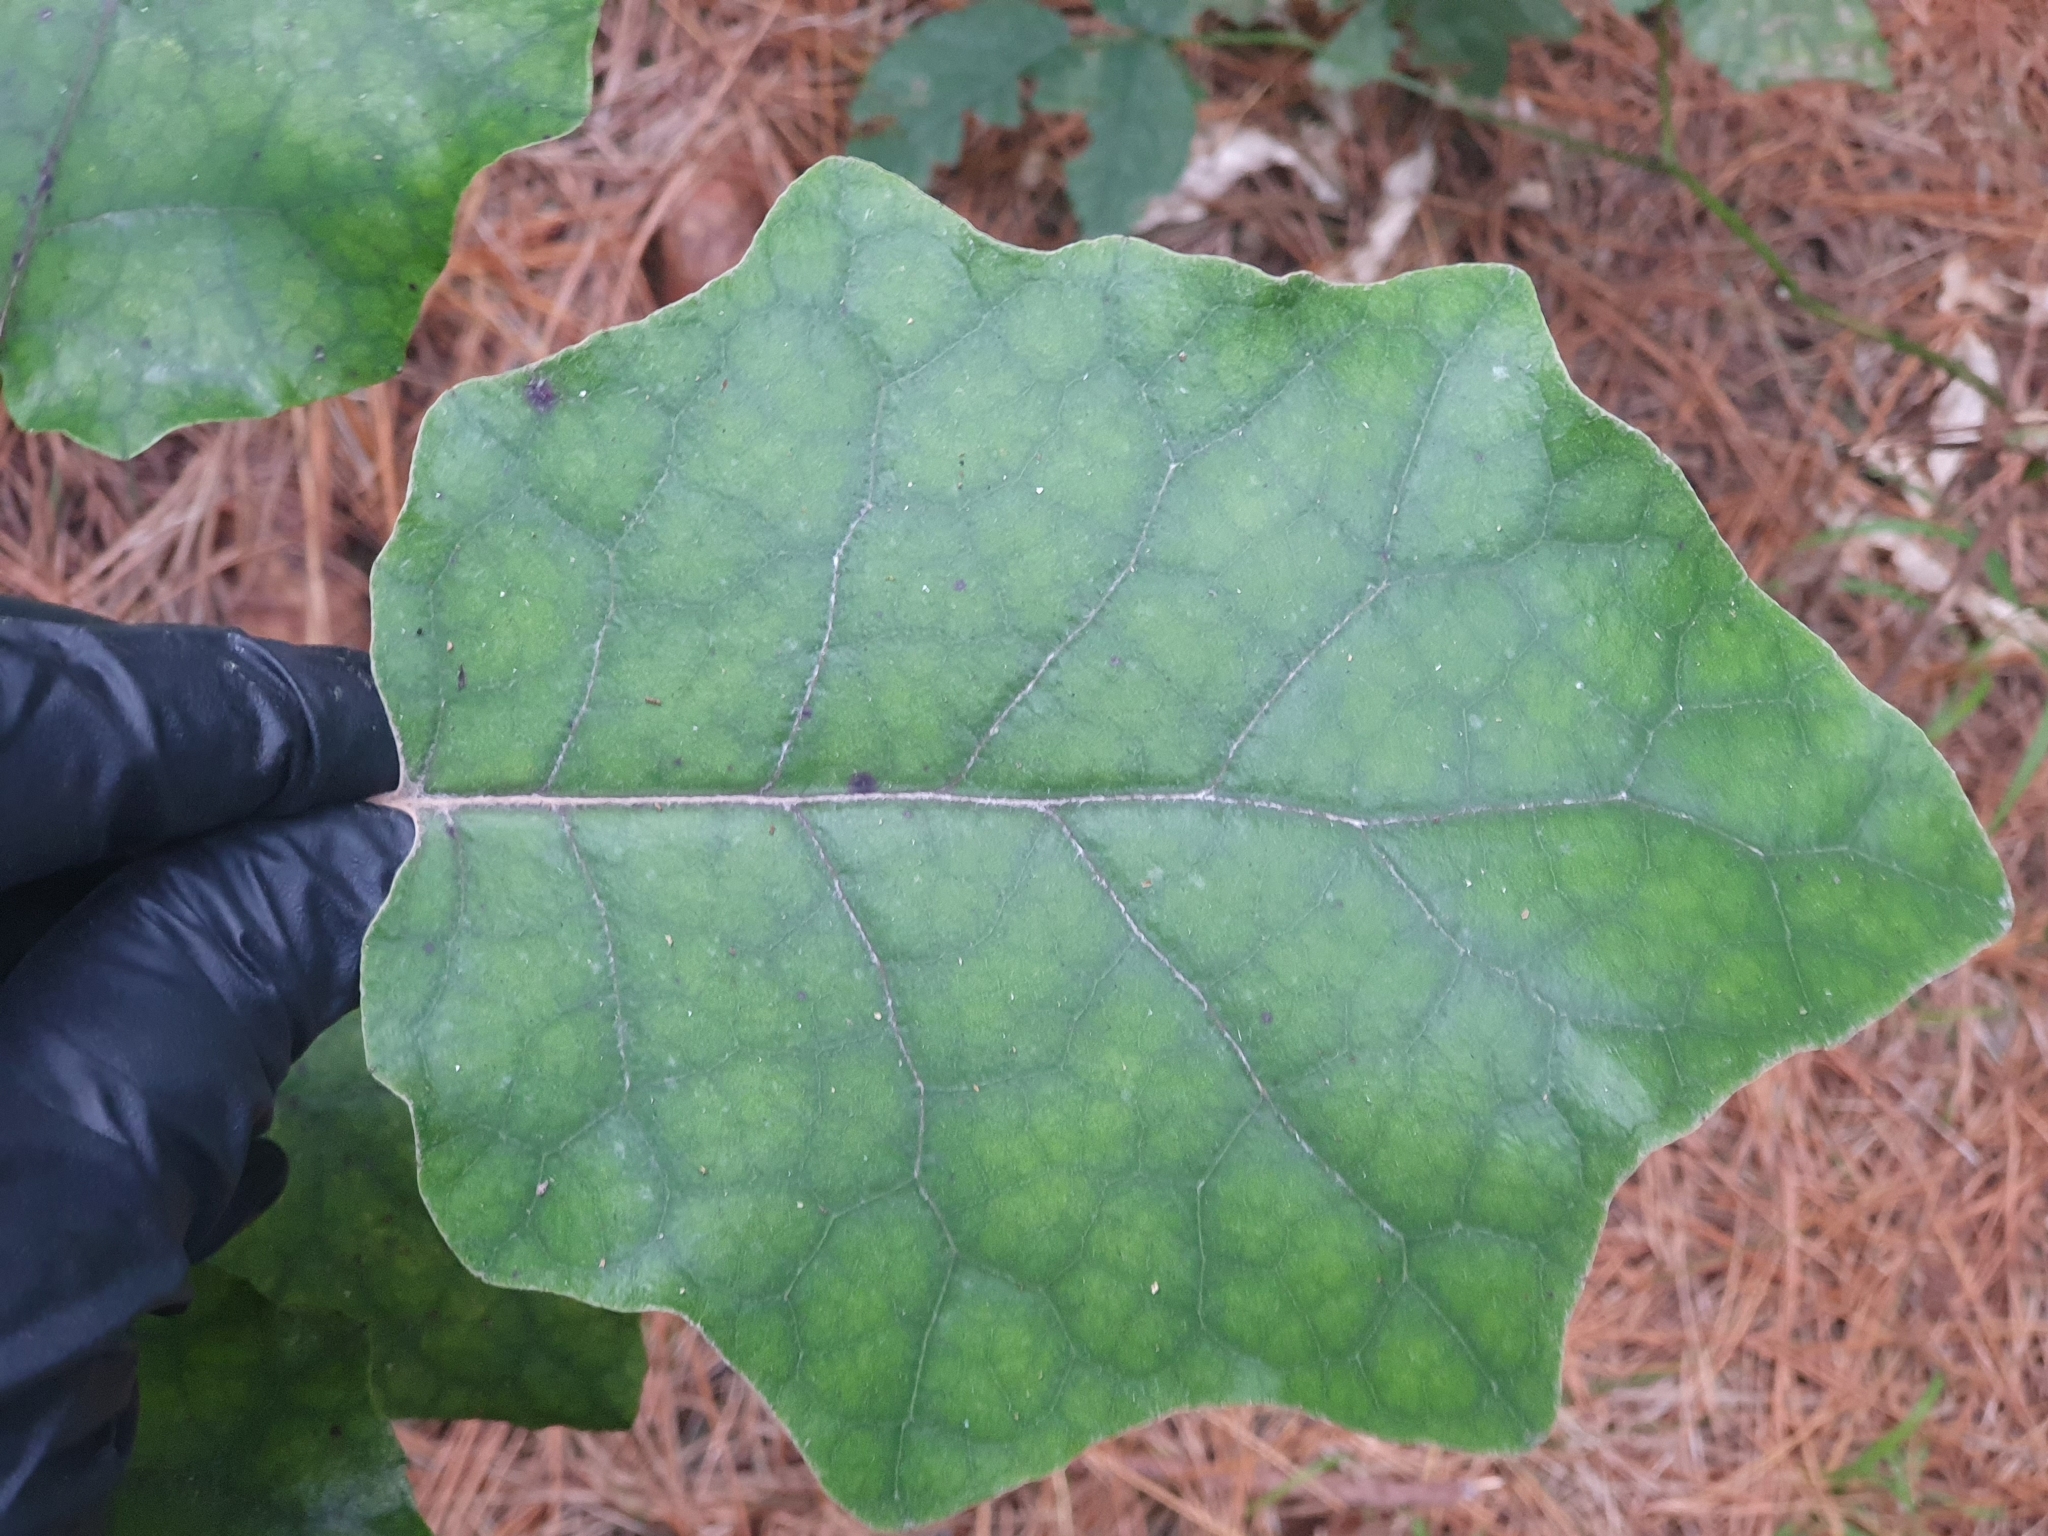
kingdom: Plantae
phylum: Tracheophyta
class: Magnoliopsida
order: Asterales
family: Asteraceae
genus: Brachyglottis
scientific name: Brachyglottis repanda
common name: Hedge ragwort
